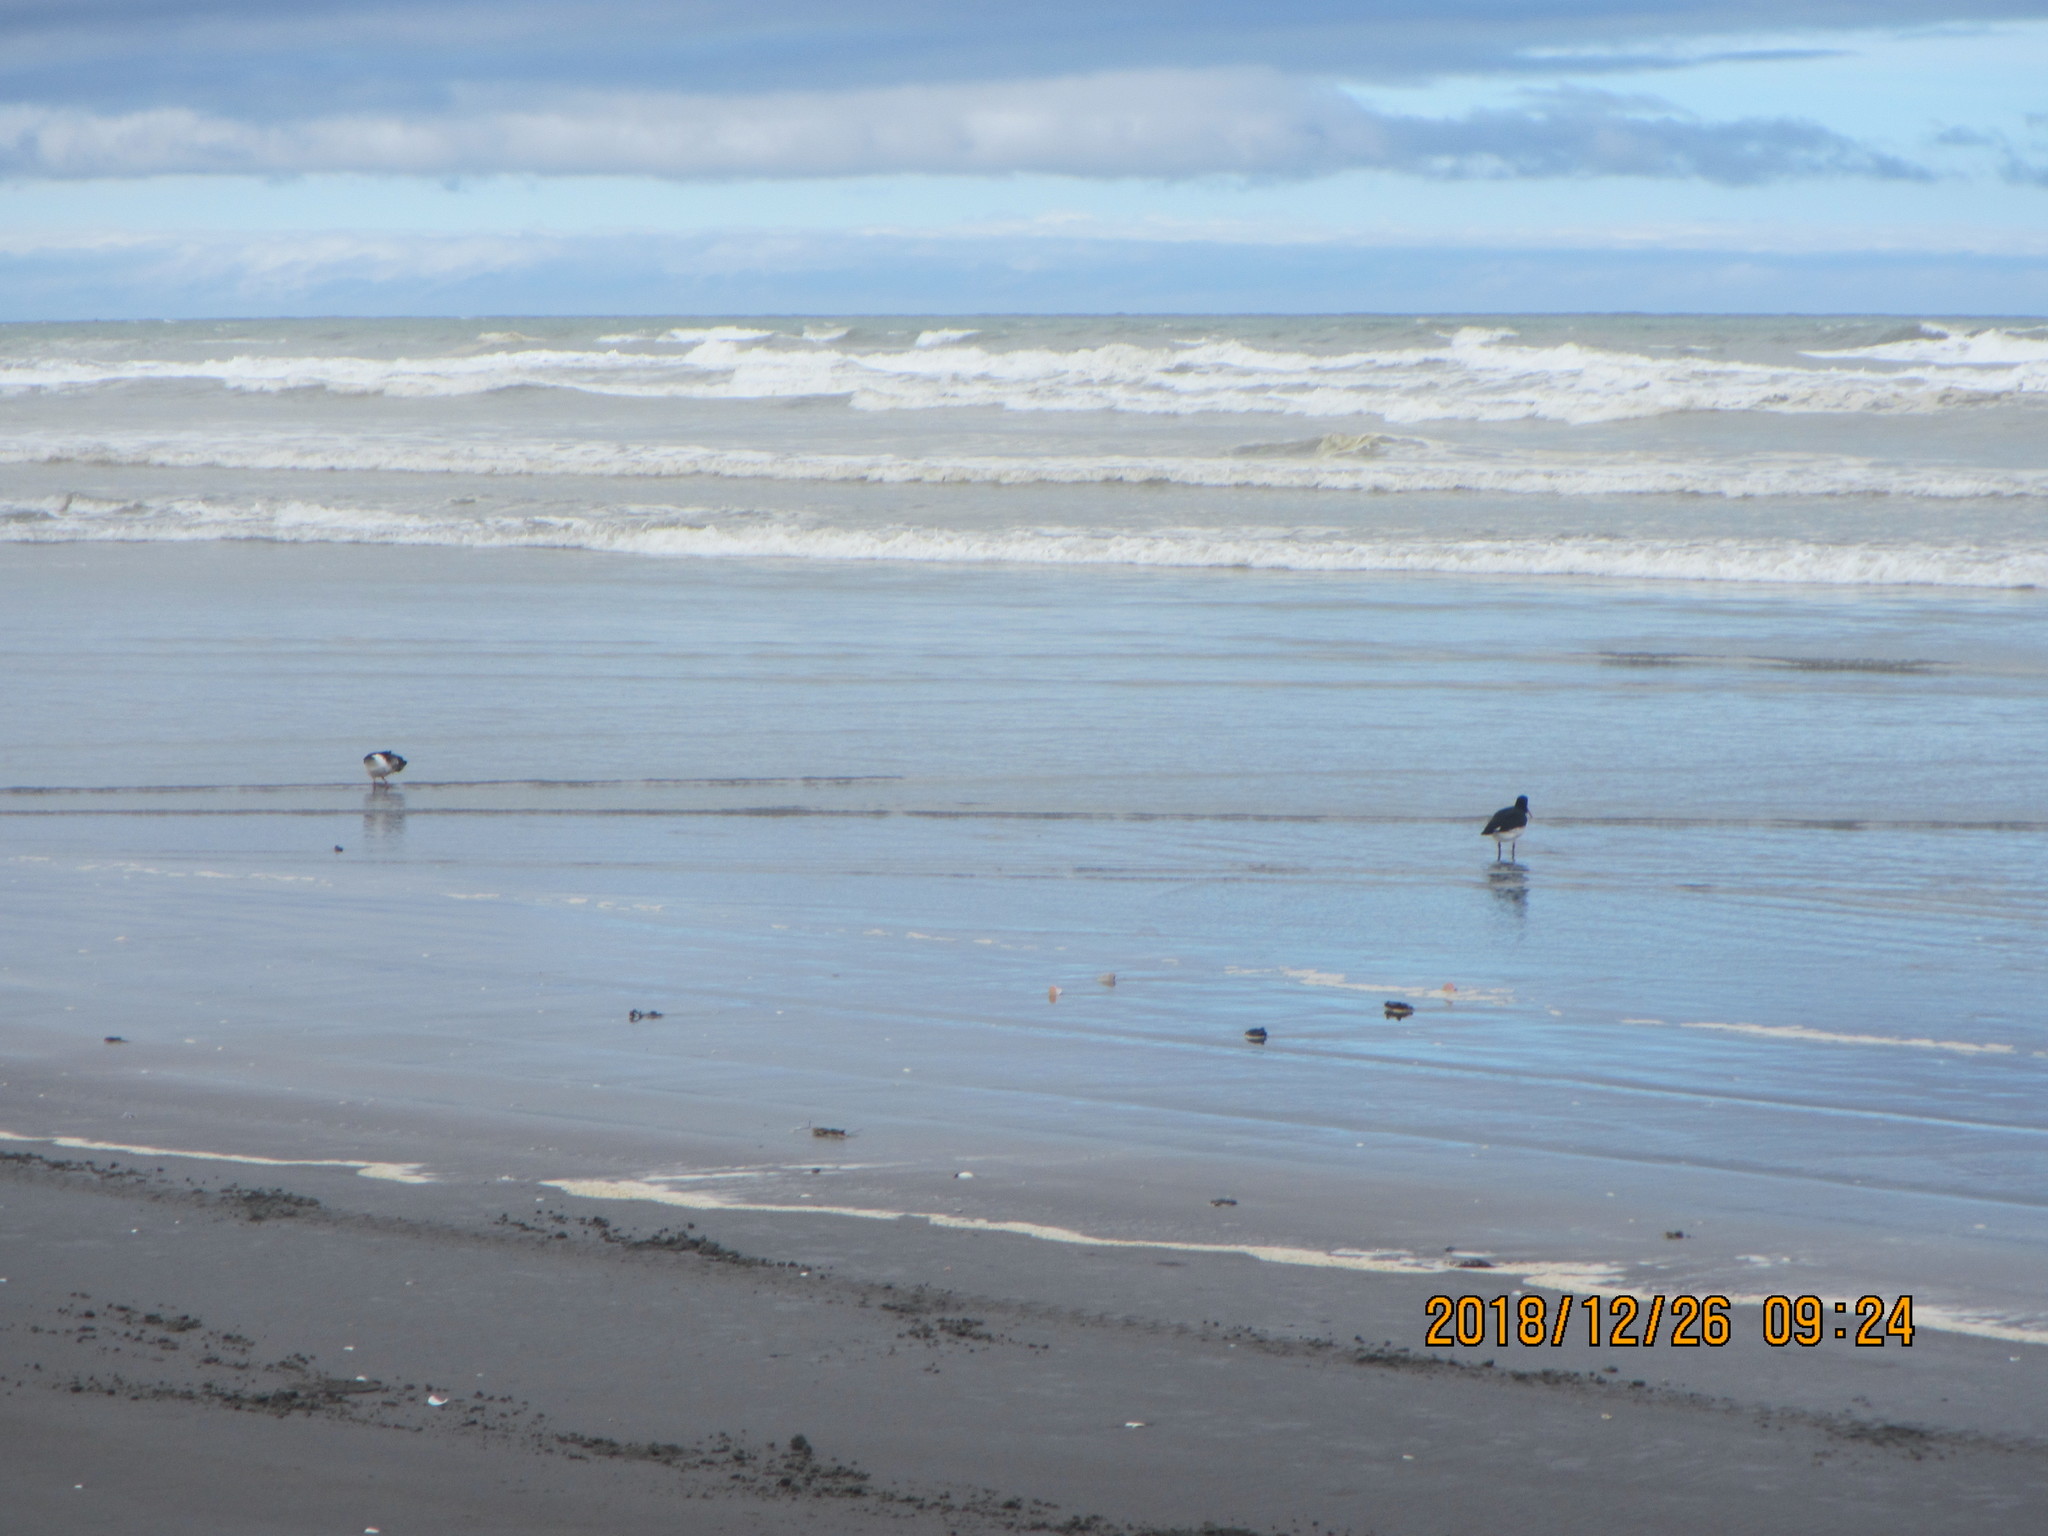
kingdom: Animalia
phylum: Chordata
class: Aves
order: Charadriiformes
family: Haematopodidae
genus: Haematopus
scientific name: Haematopus finschi
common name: South island oystercatcher
